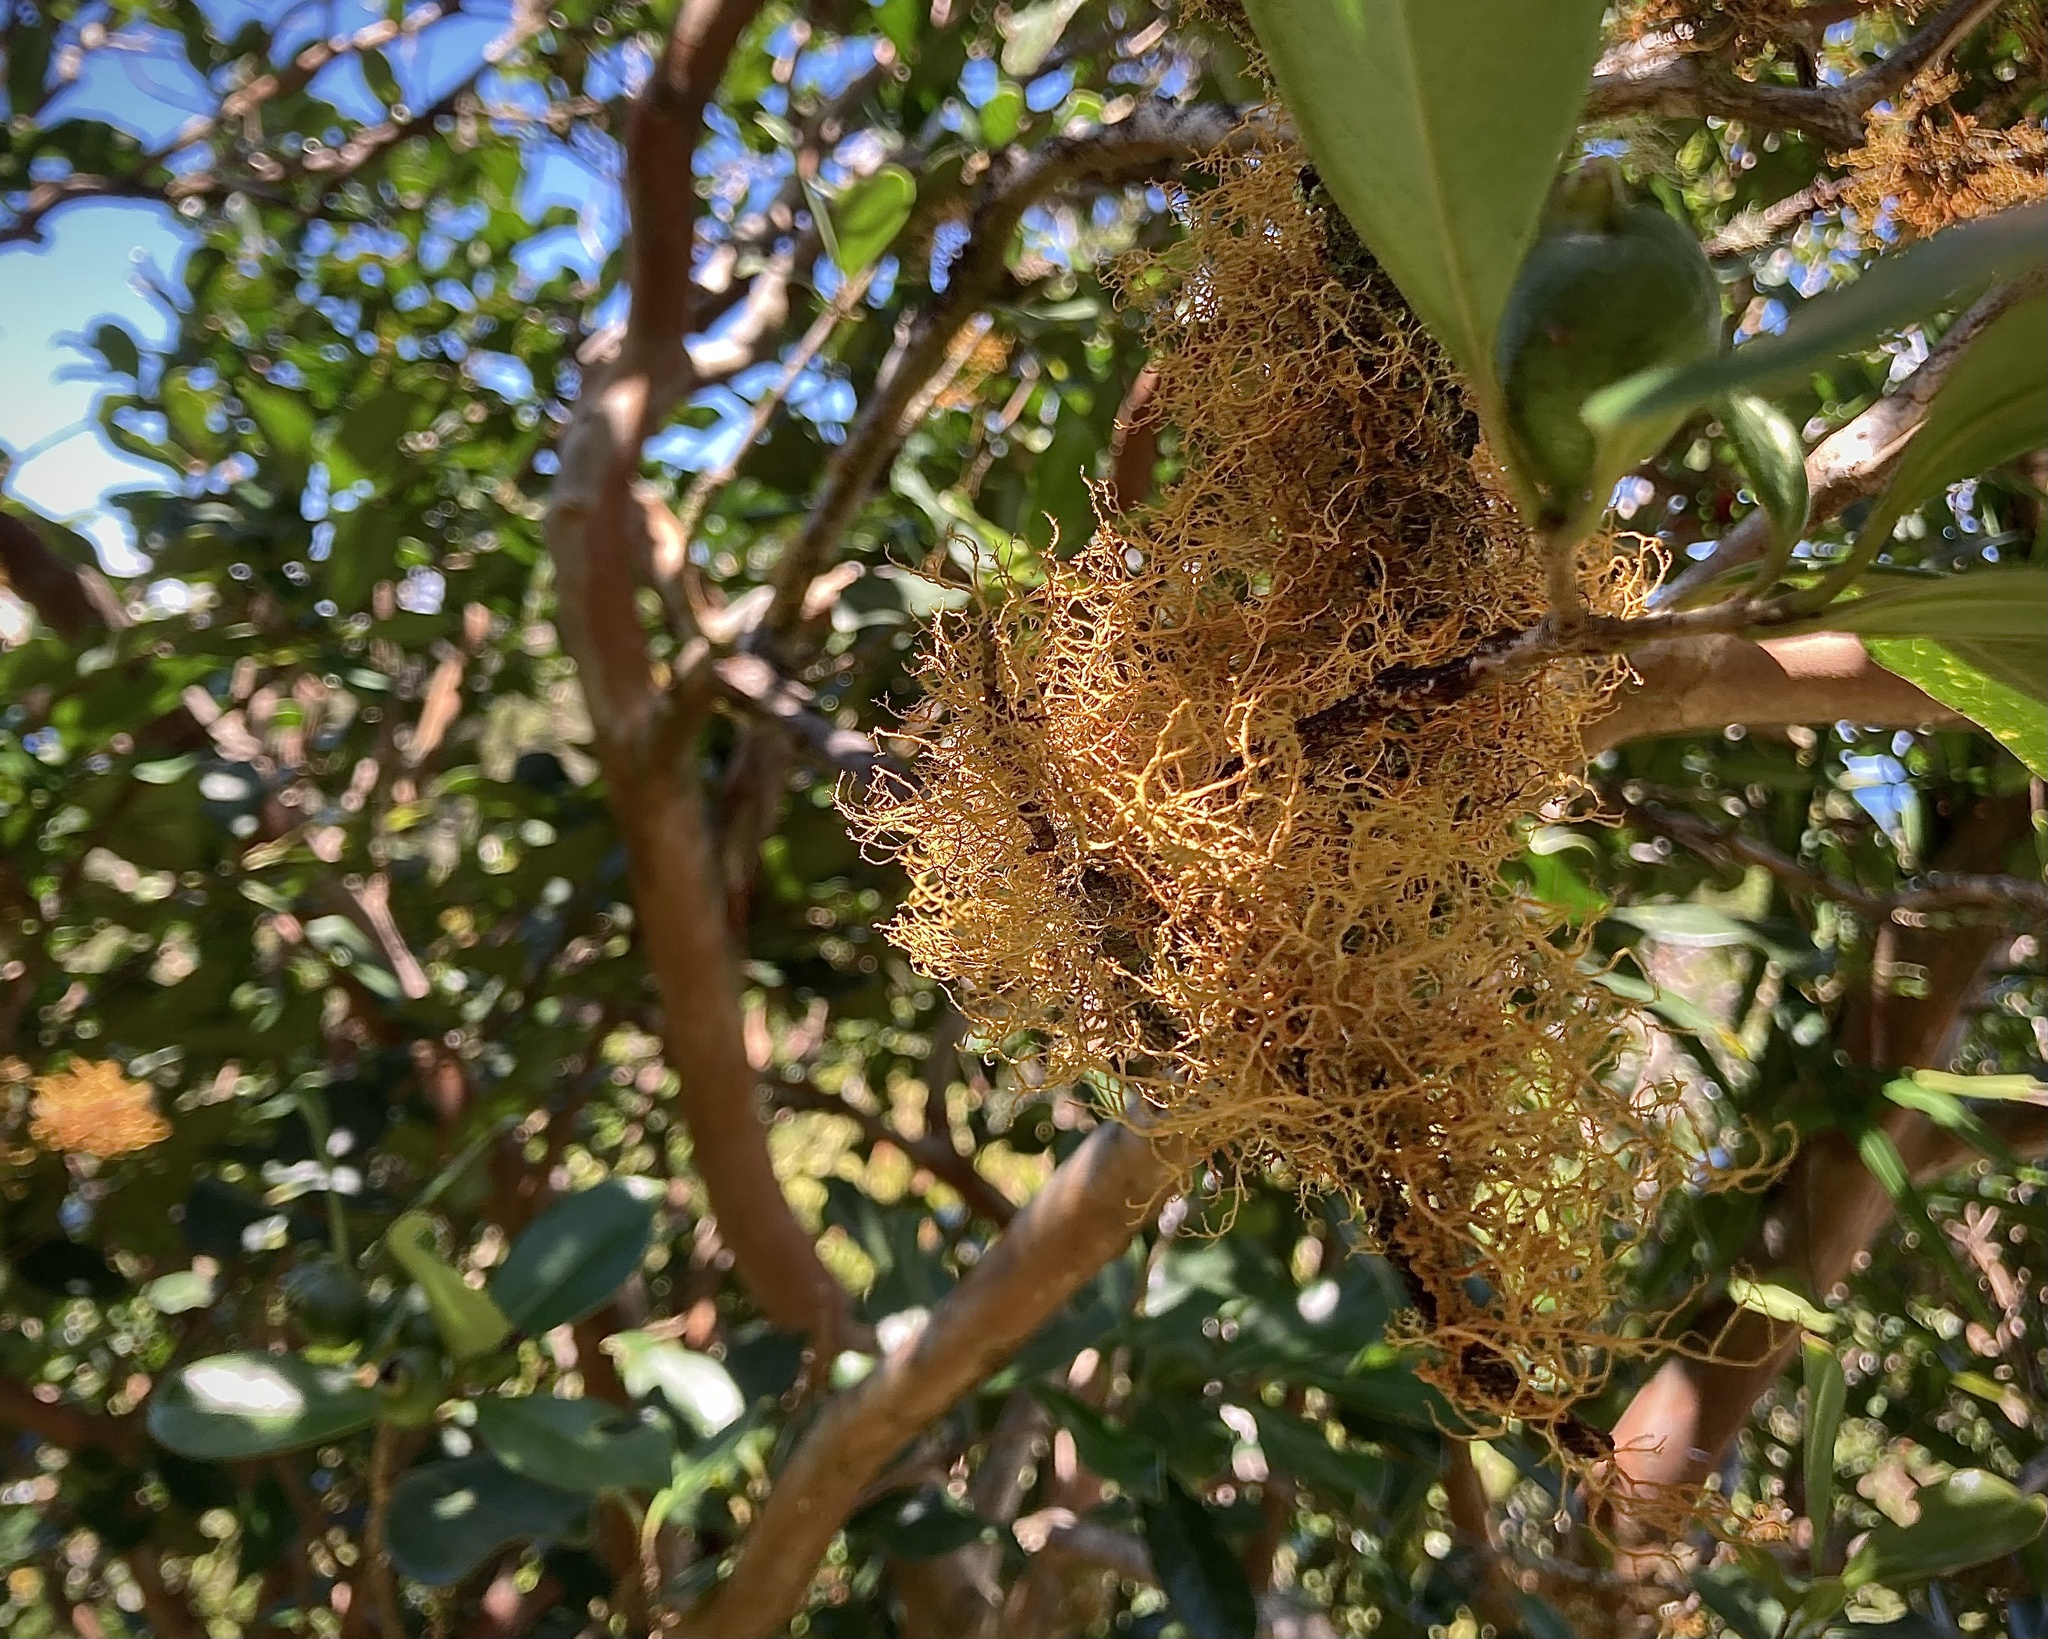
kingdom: Fungi
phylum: Ascomycota
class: Lecanoromycetes
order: Teloschistales
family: Teloschistaceae
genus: Teloschistes
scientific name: Teloschistes flavicans
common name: Golden hair-lichen
